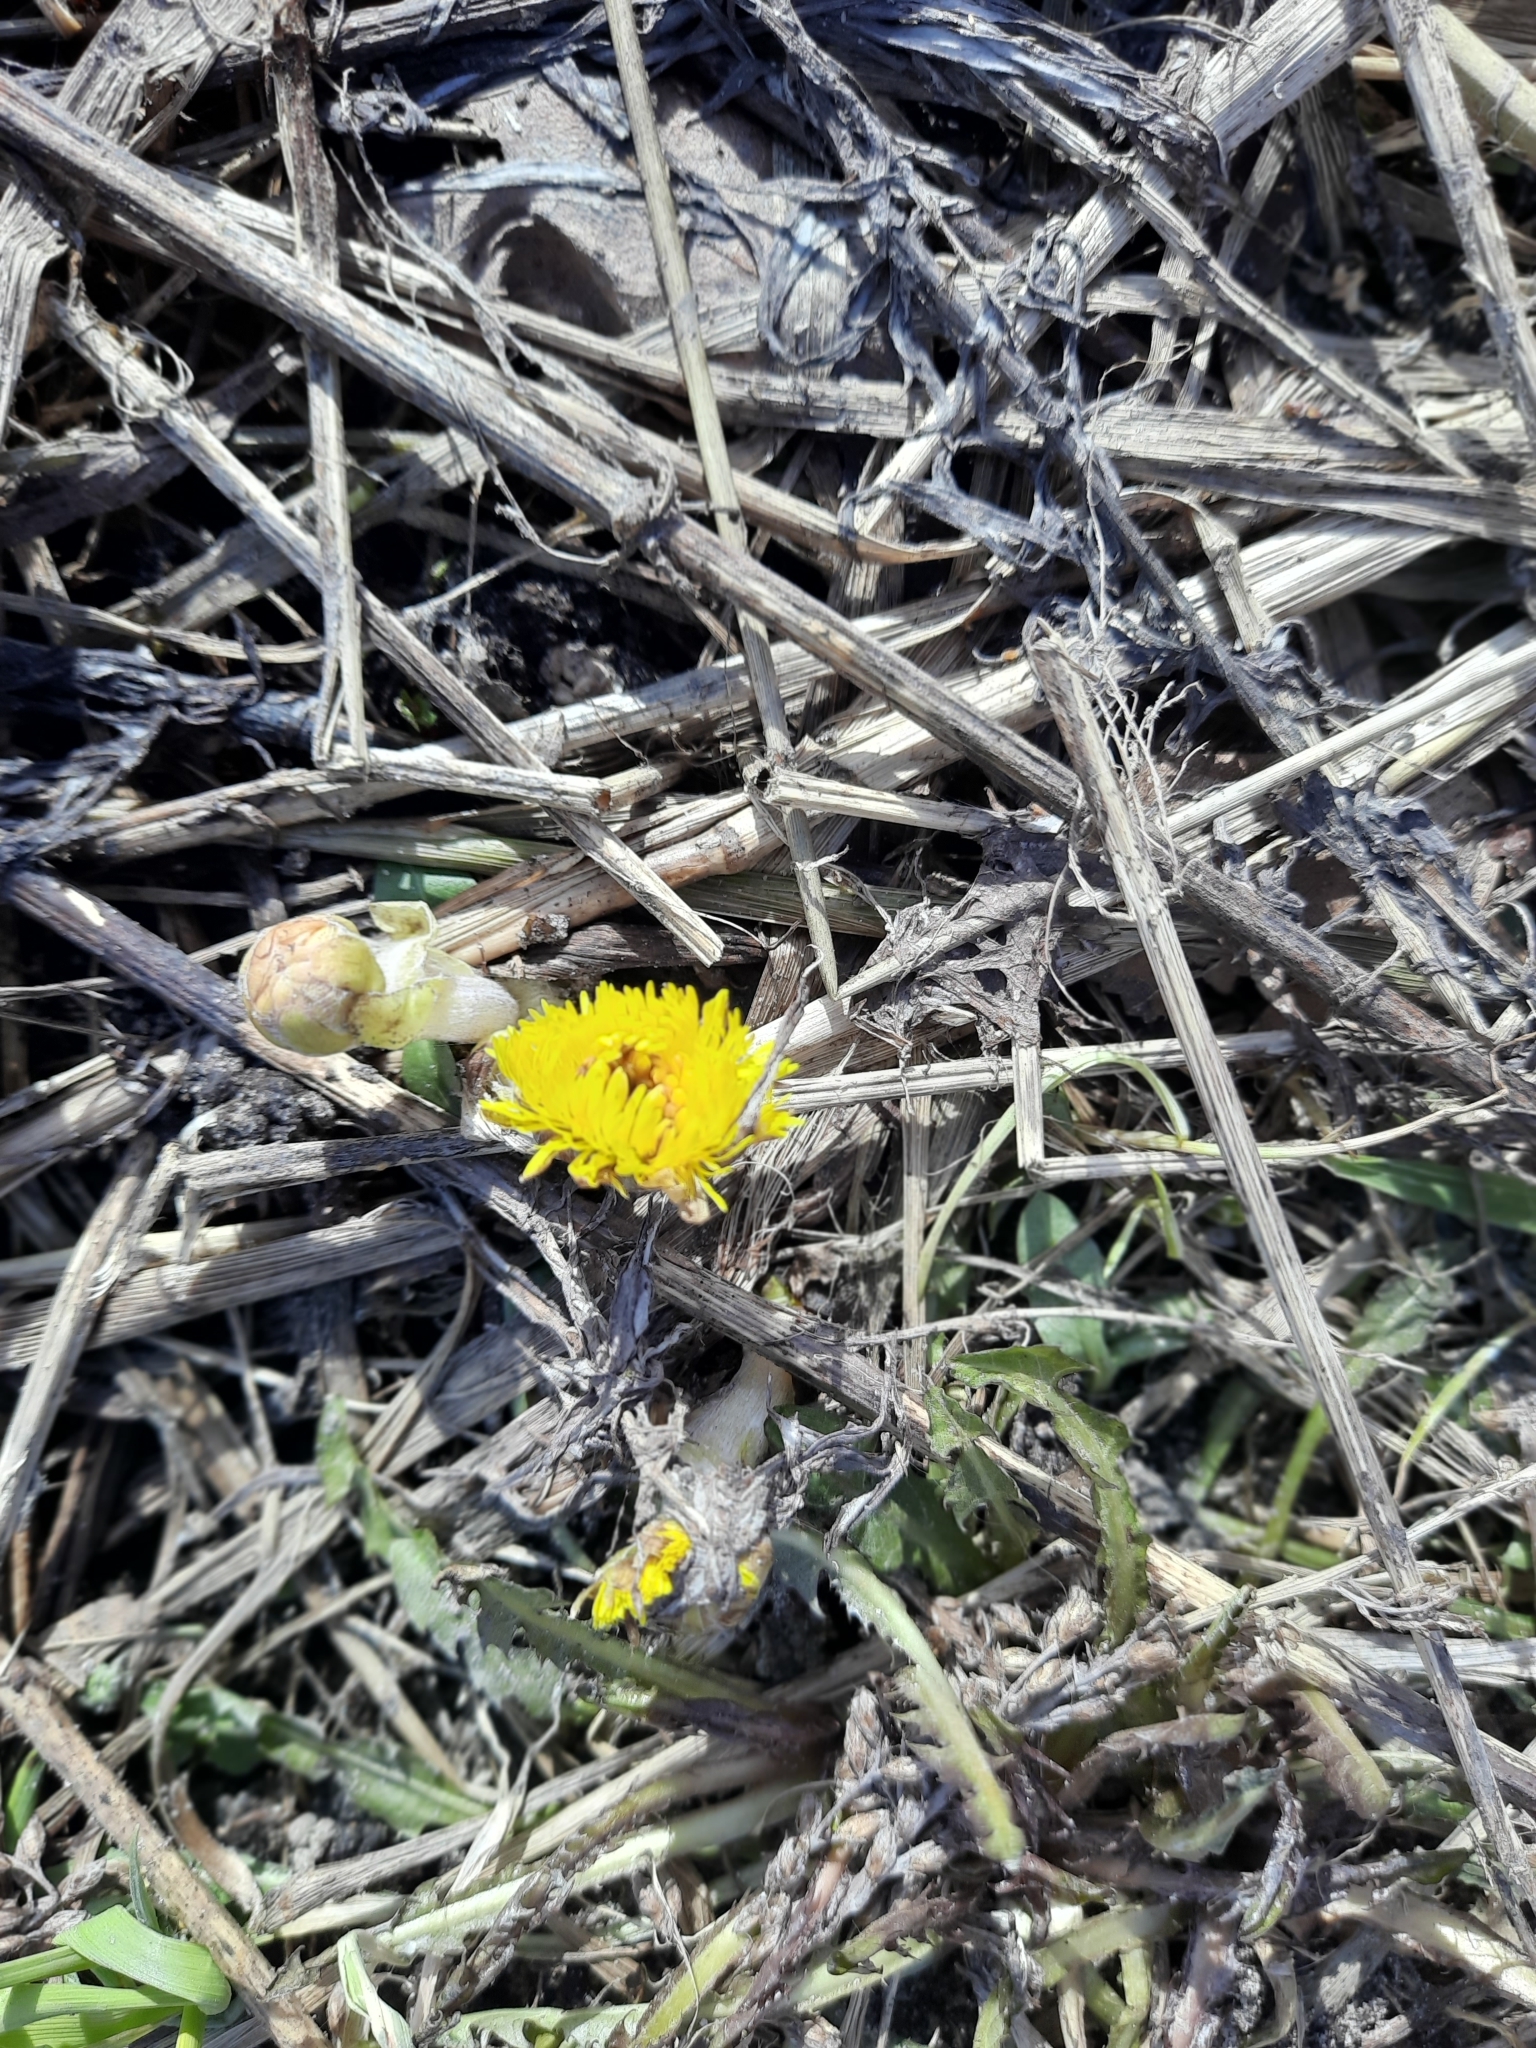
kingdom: Plantae
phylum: Tracheophyta
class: Magnoliopsida
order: Asterales
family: Asteraceae
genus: Tussilago
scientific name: Tussilago farfara
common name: Coltsfoot
